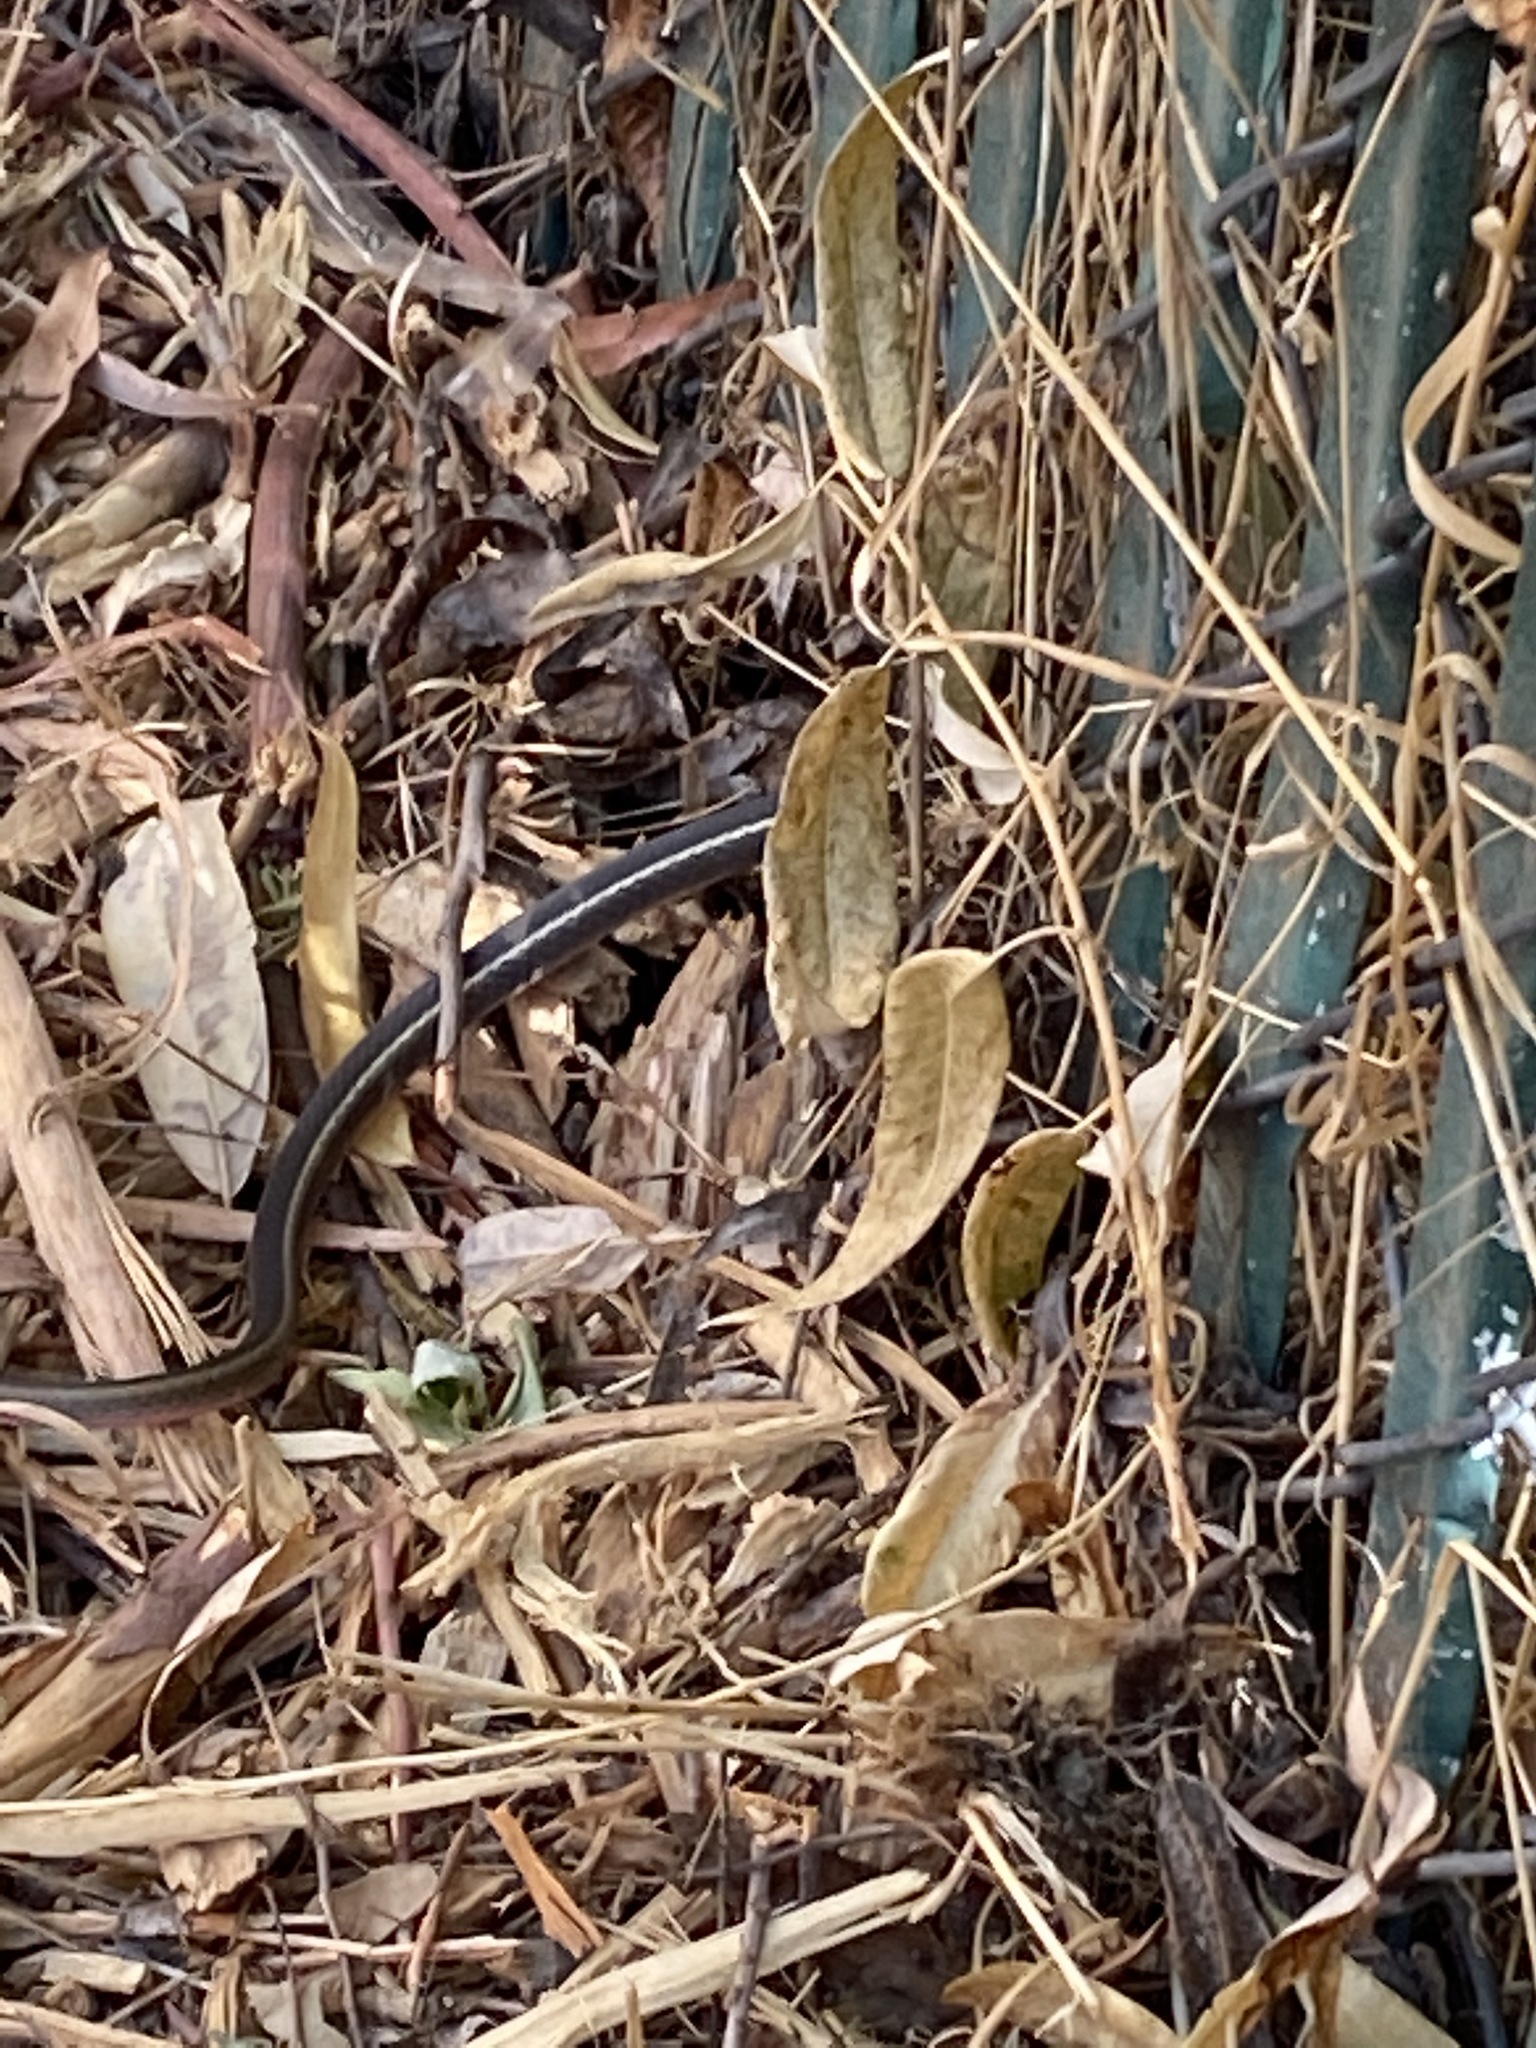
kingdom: Animalia
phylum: Chordata
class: Squamata
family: Colubridae
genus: Masticophis
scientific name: Masticophis lateralis
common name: Striped racer
